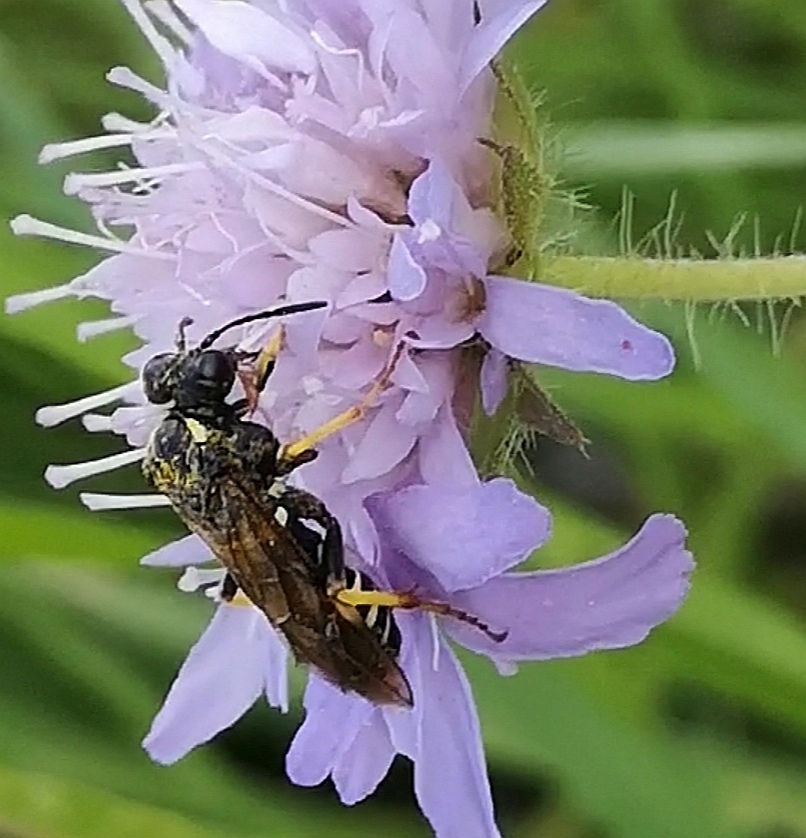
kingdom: Animalia
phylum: Arthropoda
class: Insecta
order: Hymenoptera
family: Tenthredinidae
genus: Tenthredo
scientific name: Tenthredo koehleri
